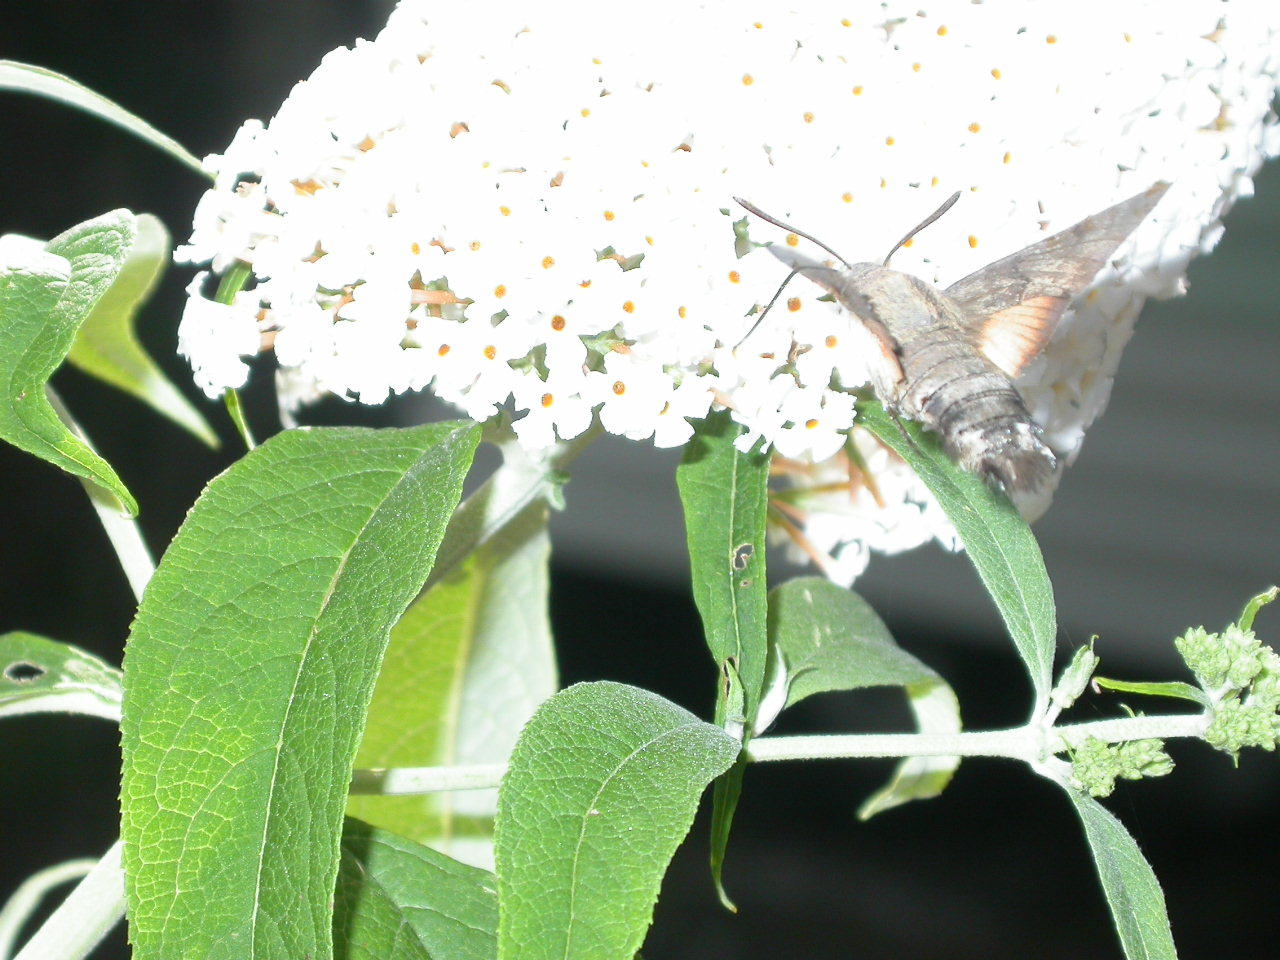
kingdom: Animalia
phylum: Arthropoda
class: Insecta
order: Lepidoptera
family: Sphingidae
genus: Macroglossum
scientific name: Macroglossum stellatarum
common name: Humming-bird hawk-moth
